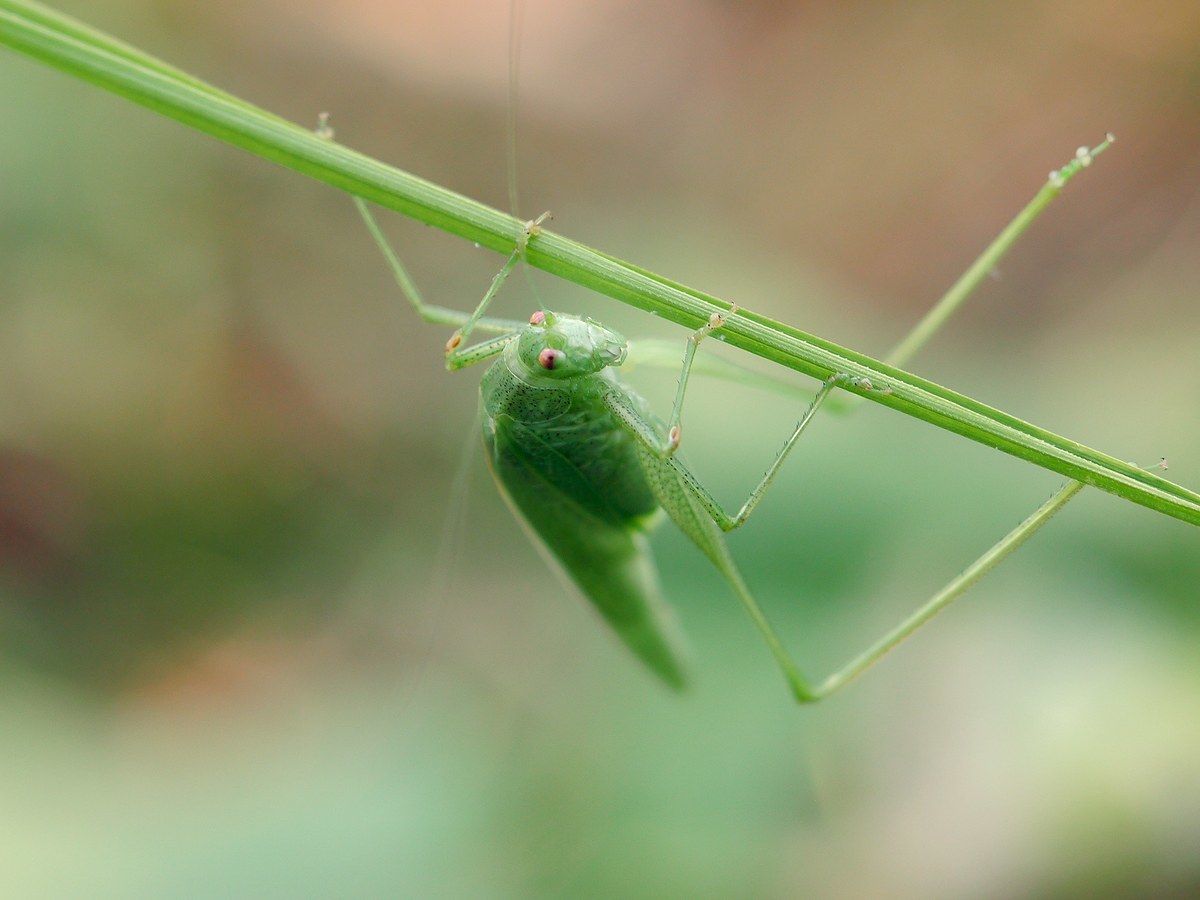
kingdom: Animalia
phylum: Arthropoda
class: Insecta
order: Orthoptera
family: Tettigoniidae
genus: Phaneroptera
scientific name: Phaneroptera nana
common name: Southern sickle bush-cricket
